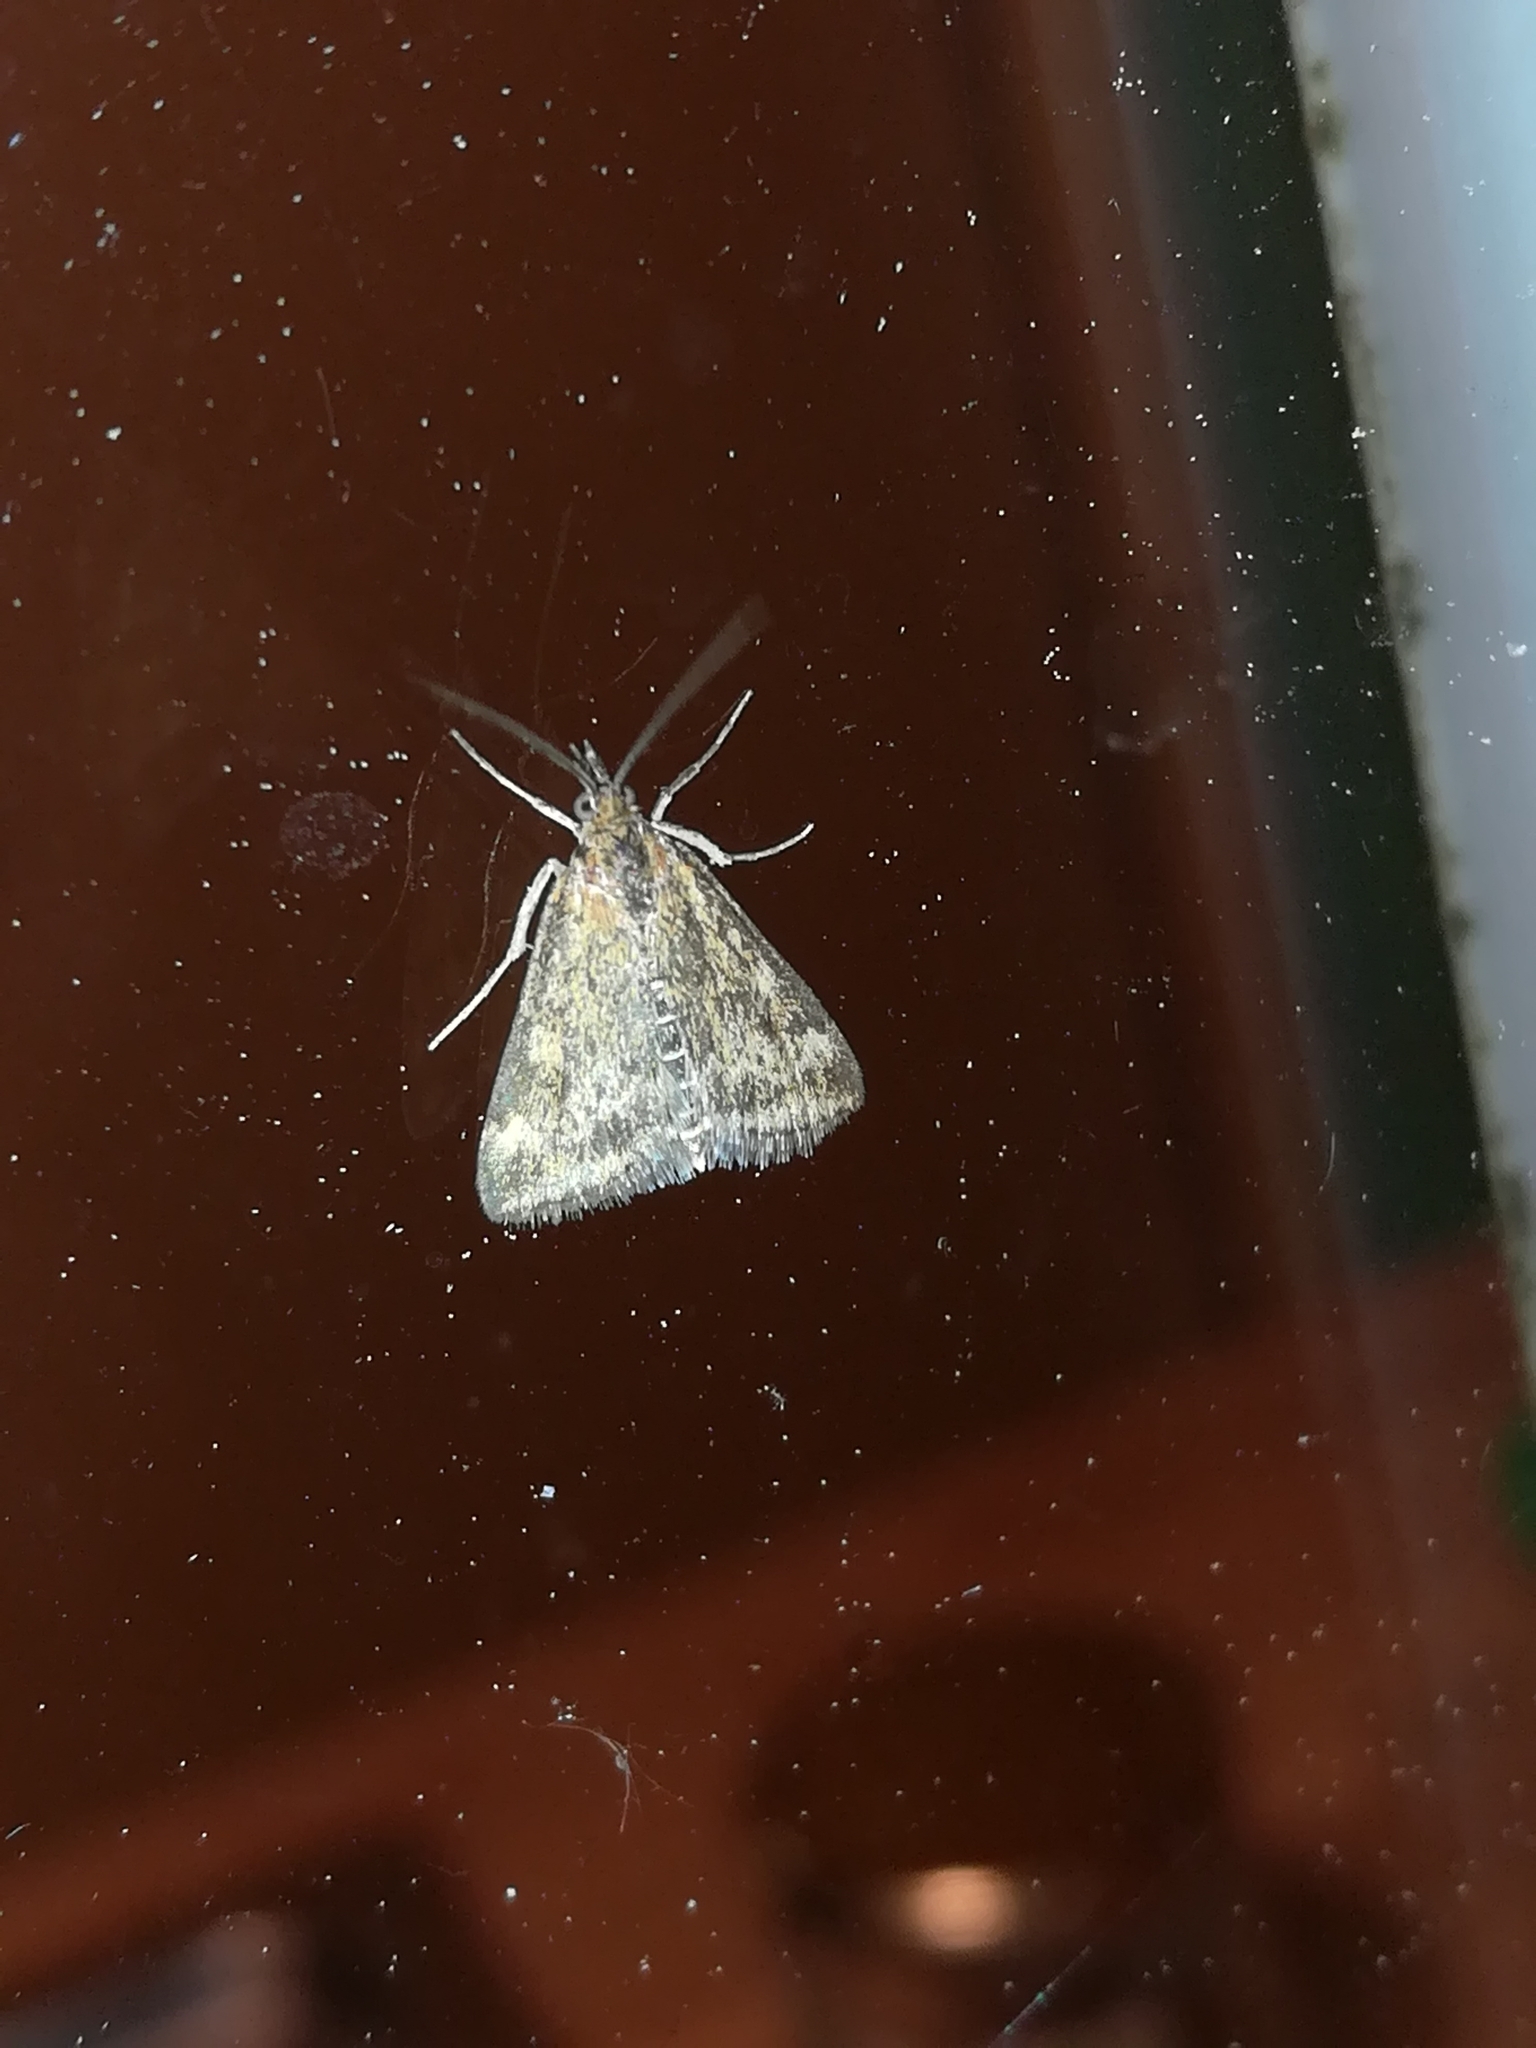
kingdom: Animalia
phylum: Arthropoda
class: Insecta
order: Lepidoptera
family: Crambidae
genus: Pyrausta
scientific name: Pyrausta despicata
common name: Straw-barred pearl
